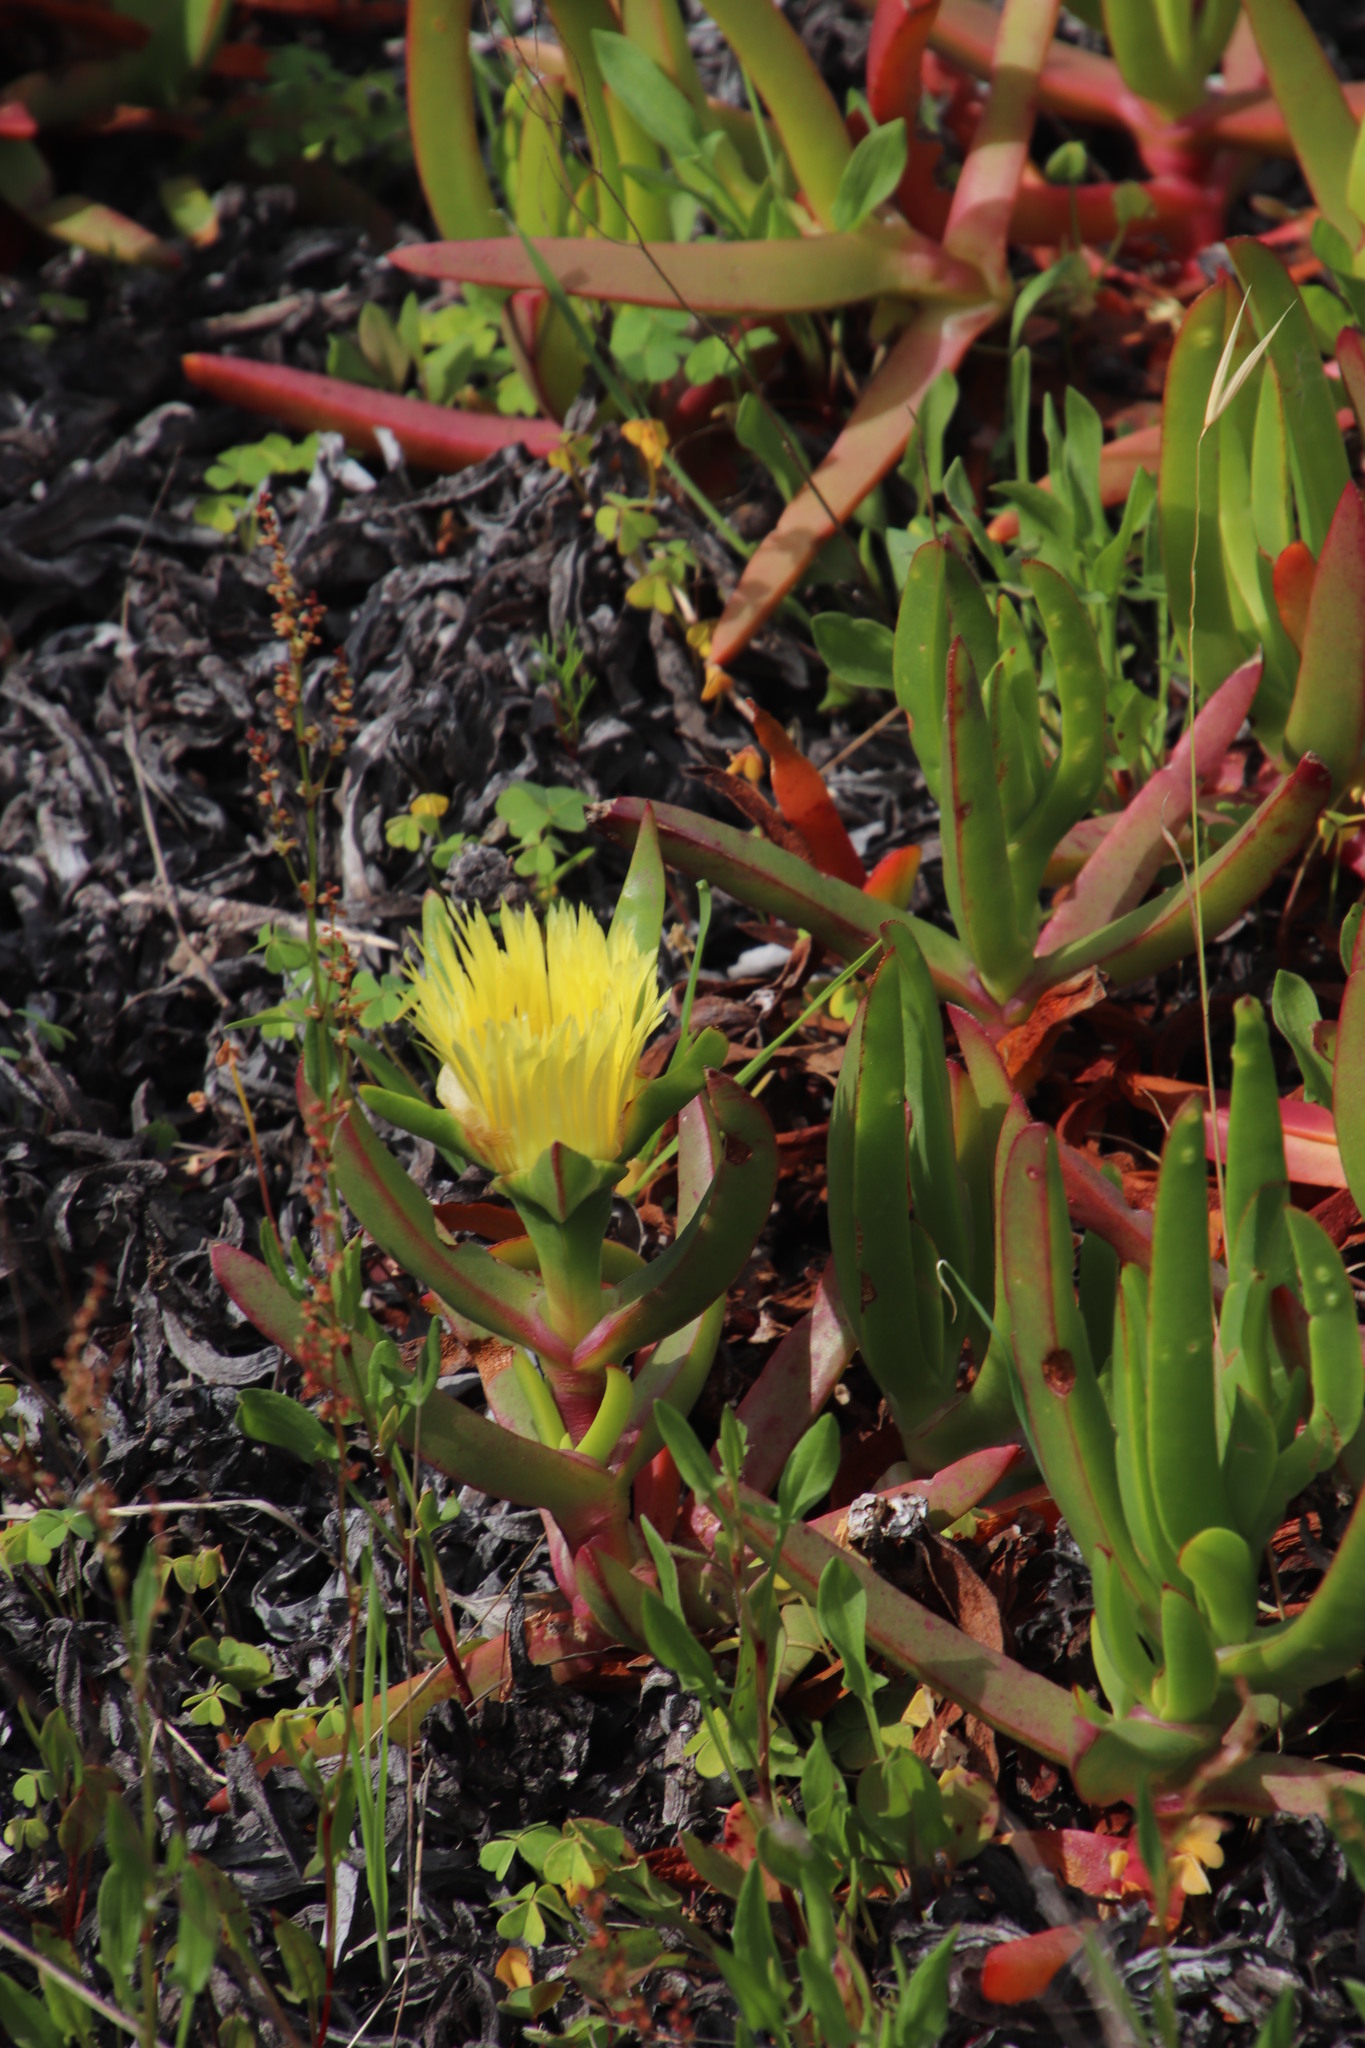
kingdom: Plantae
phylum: Tracheophyta
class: Magnoliopsida
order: Caryophyllales
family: Aizoaceae
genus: Carpobrotus
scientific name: Carpobrotus edulis
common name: Hottentot-fig
